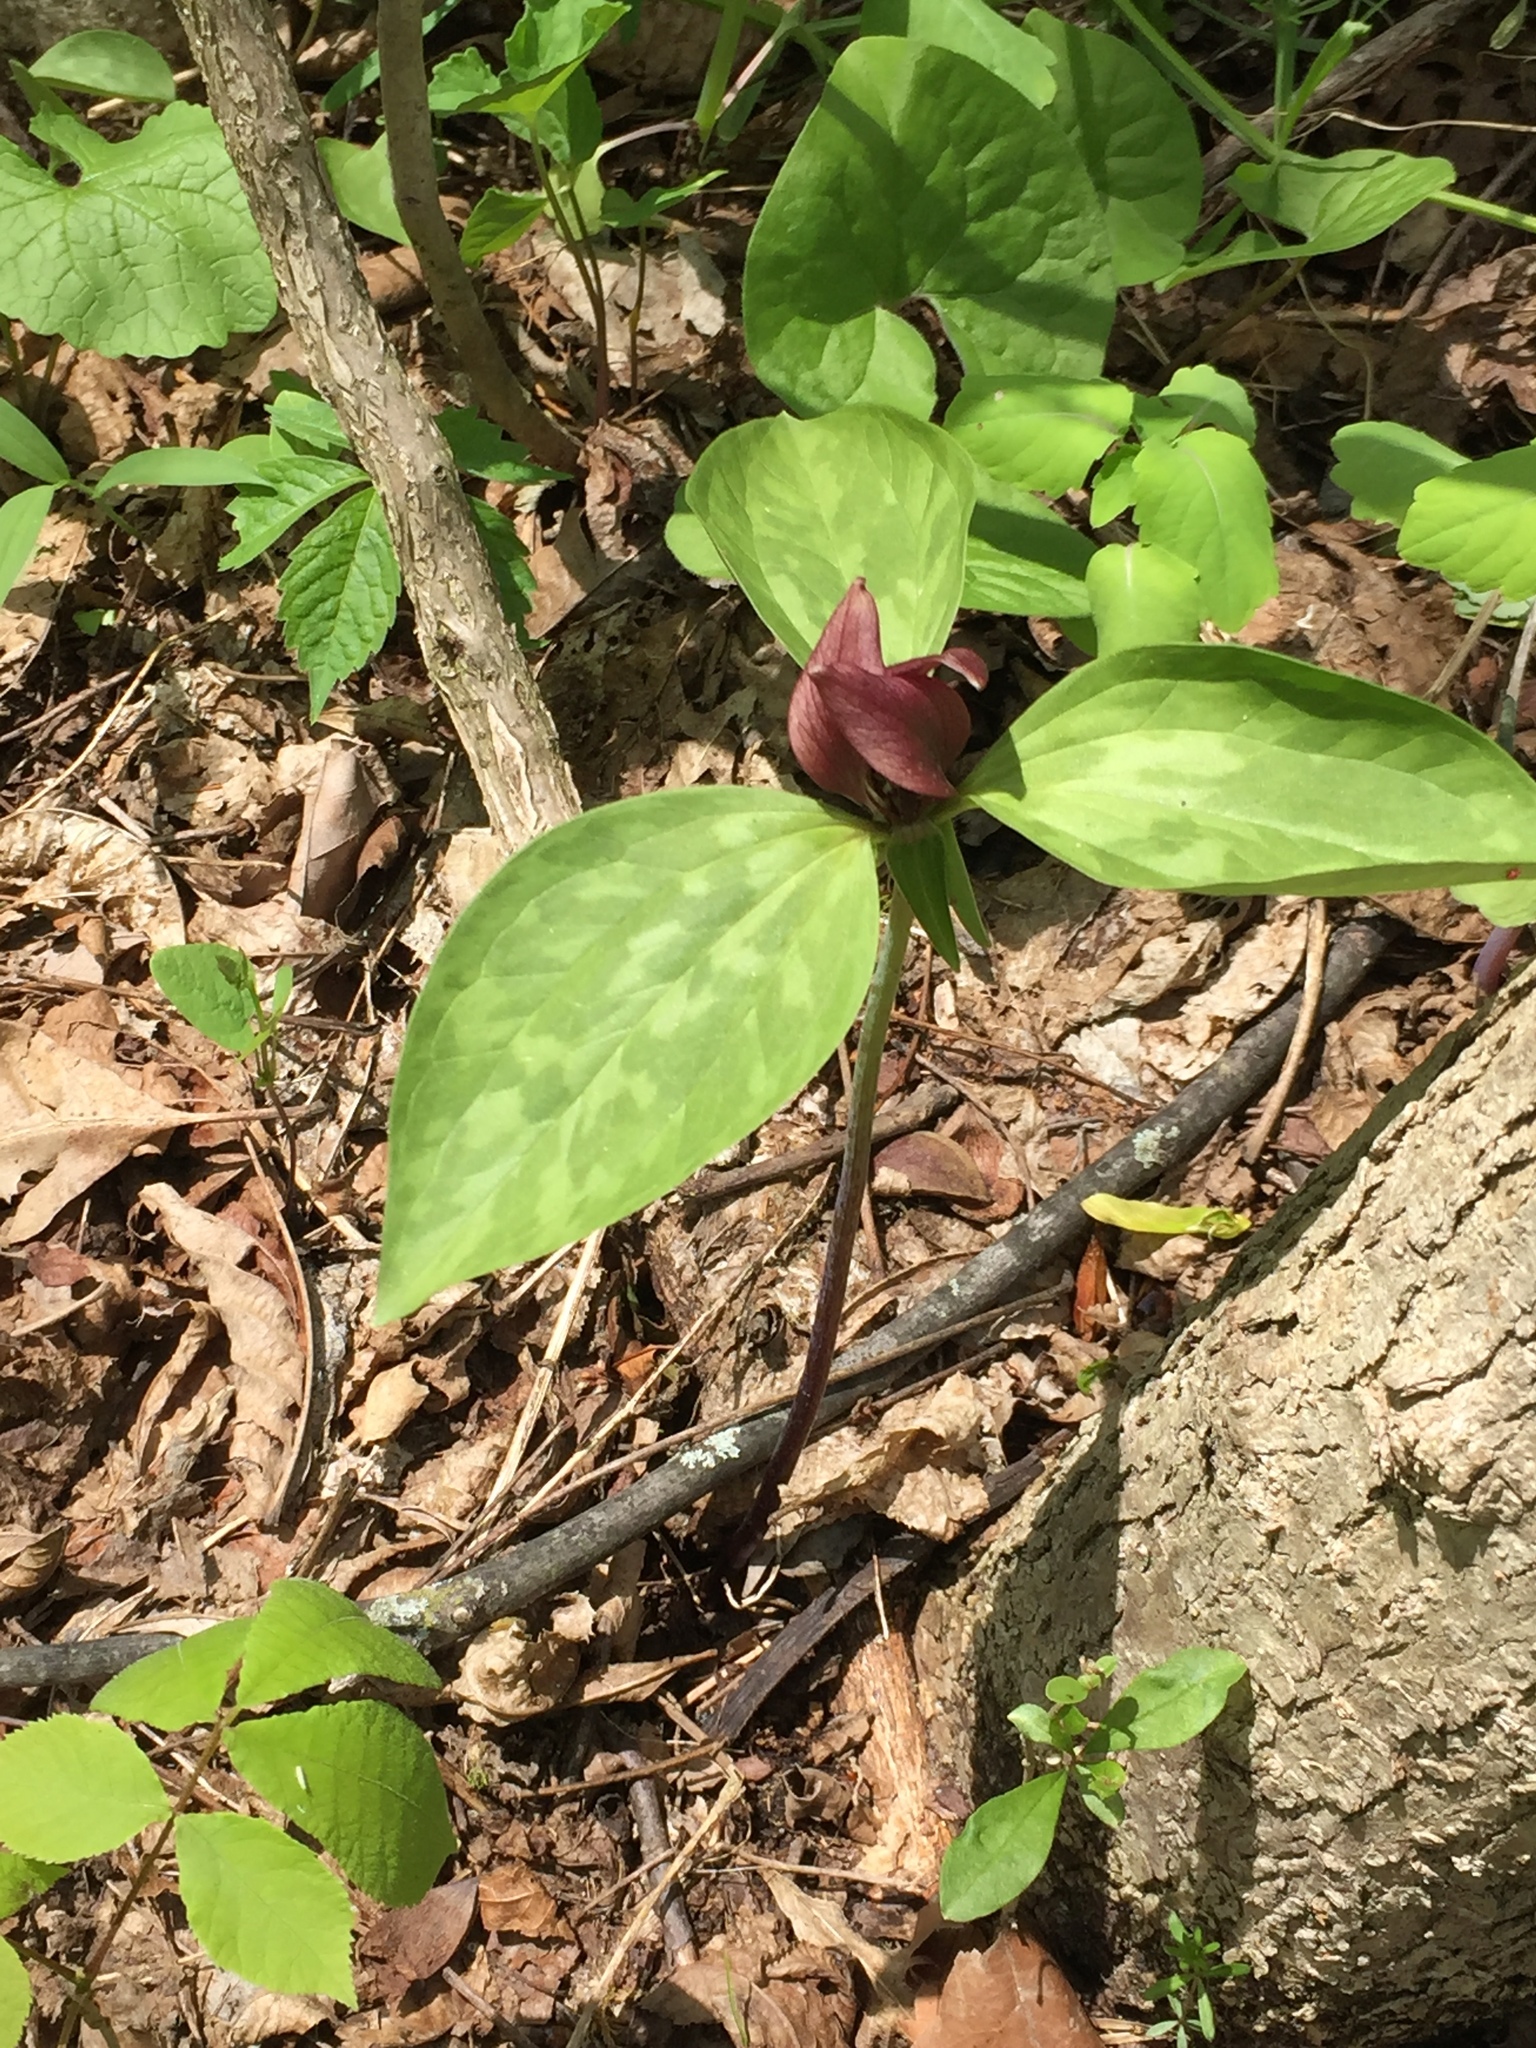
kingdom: Plantae
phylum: Tracheophyta
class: Liliopsida
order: Liliales
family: Melanthiaceae
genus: Trillium
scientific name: Trillium recurvatum
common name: Bloody butcher
